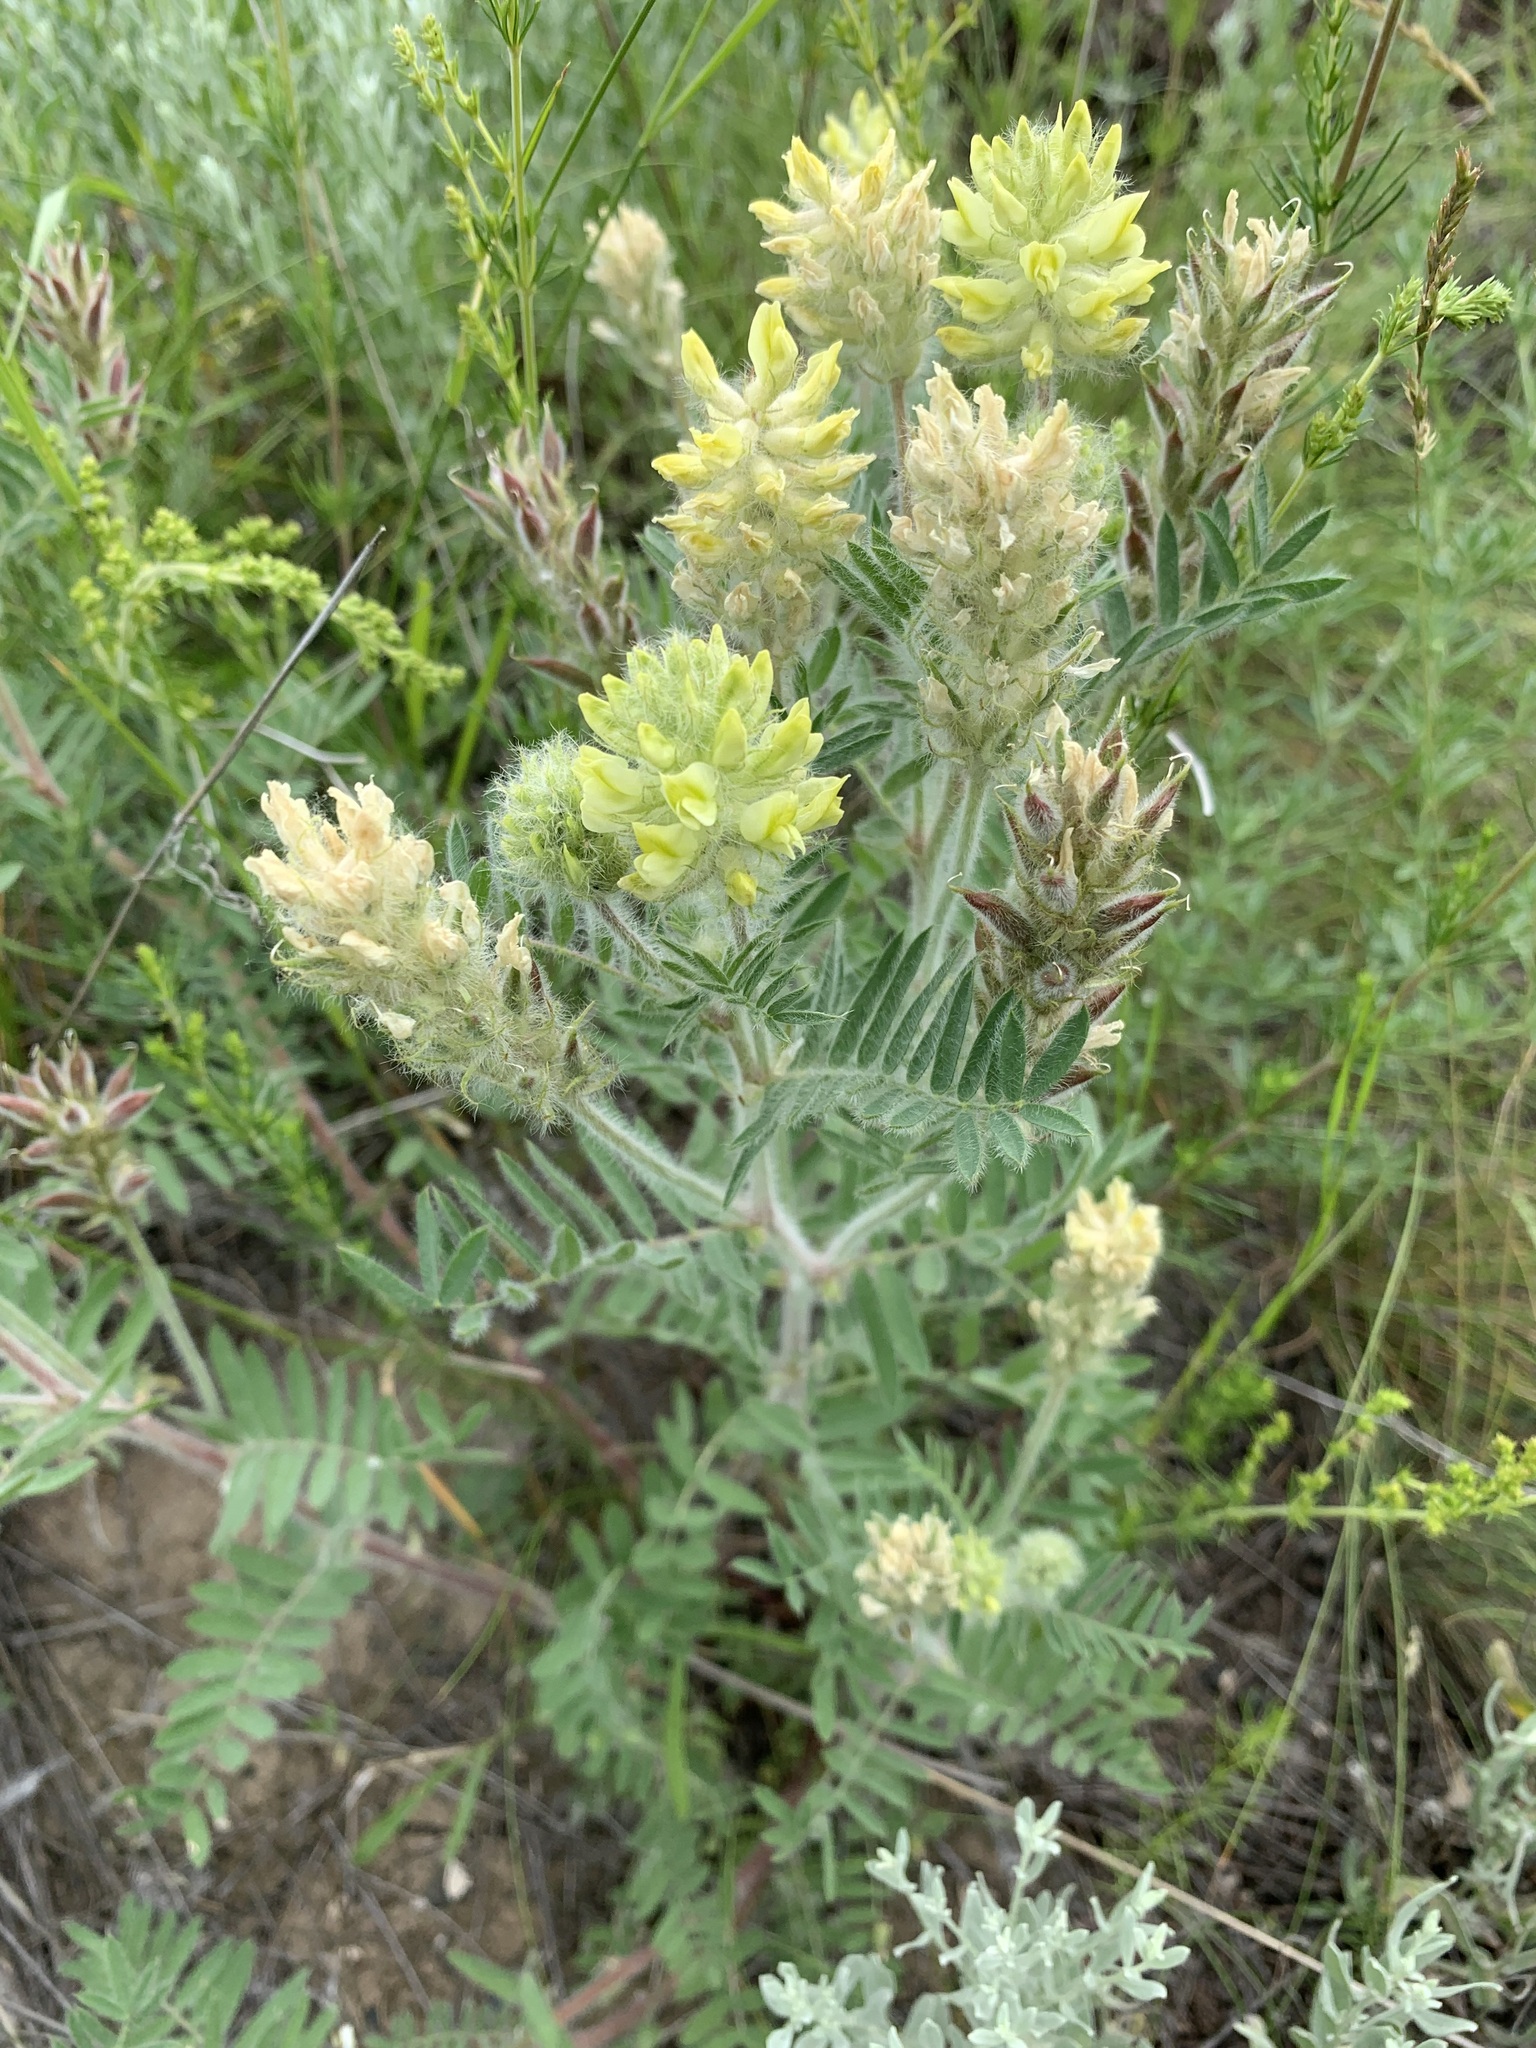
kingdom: Plantae
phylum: Tracheophyta
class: Magnoliopsida
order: Fabales
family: Fabaceae
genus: Oxytropis
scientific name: Oxytropis pilosa
